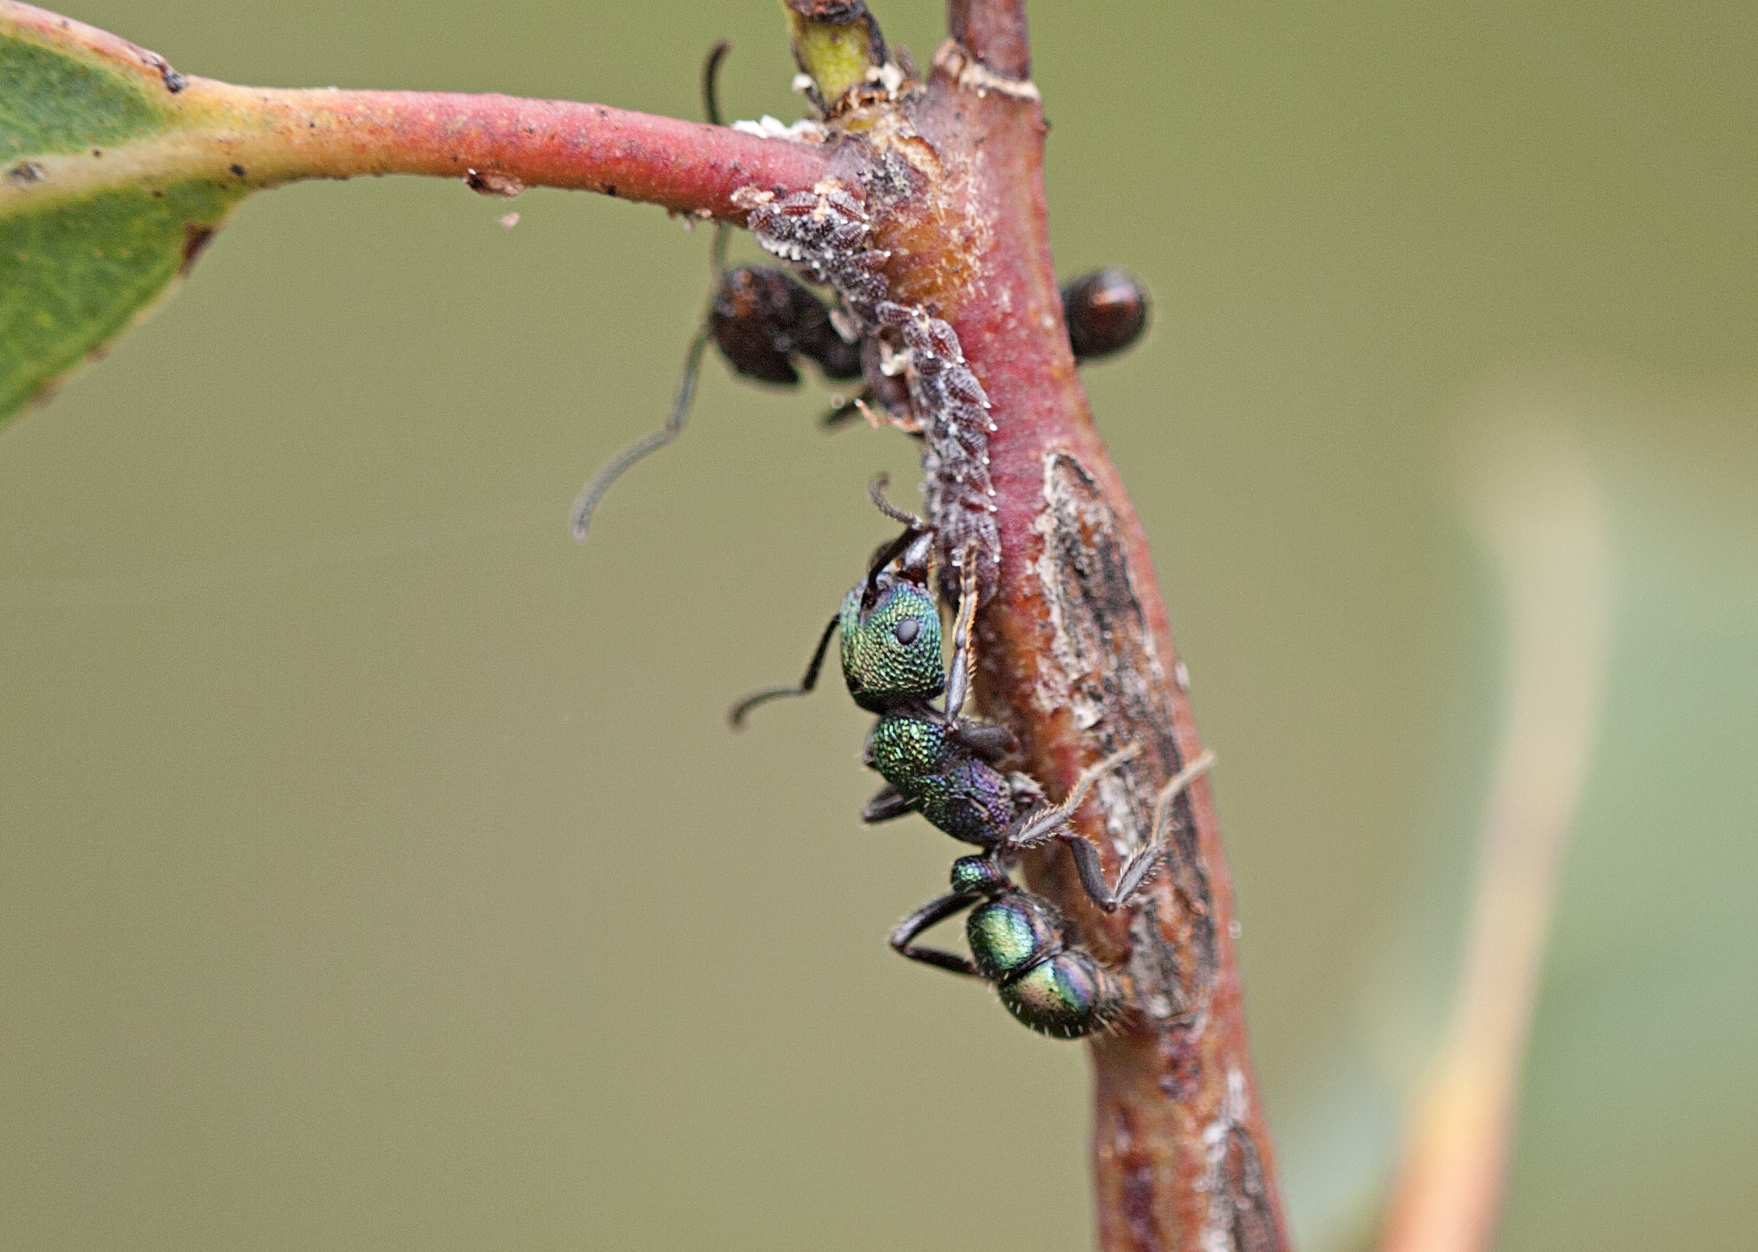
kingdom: Animalia
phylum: Arthropoda
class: Insecta
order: Hymenoptera
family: Formicidae
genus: Rhytidoponera
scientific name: Rhytidoponera metallica
